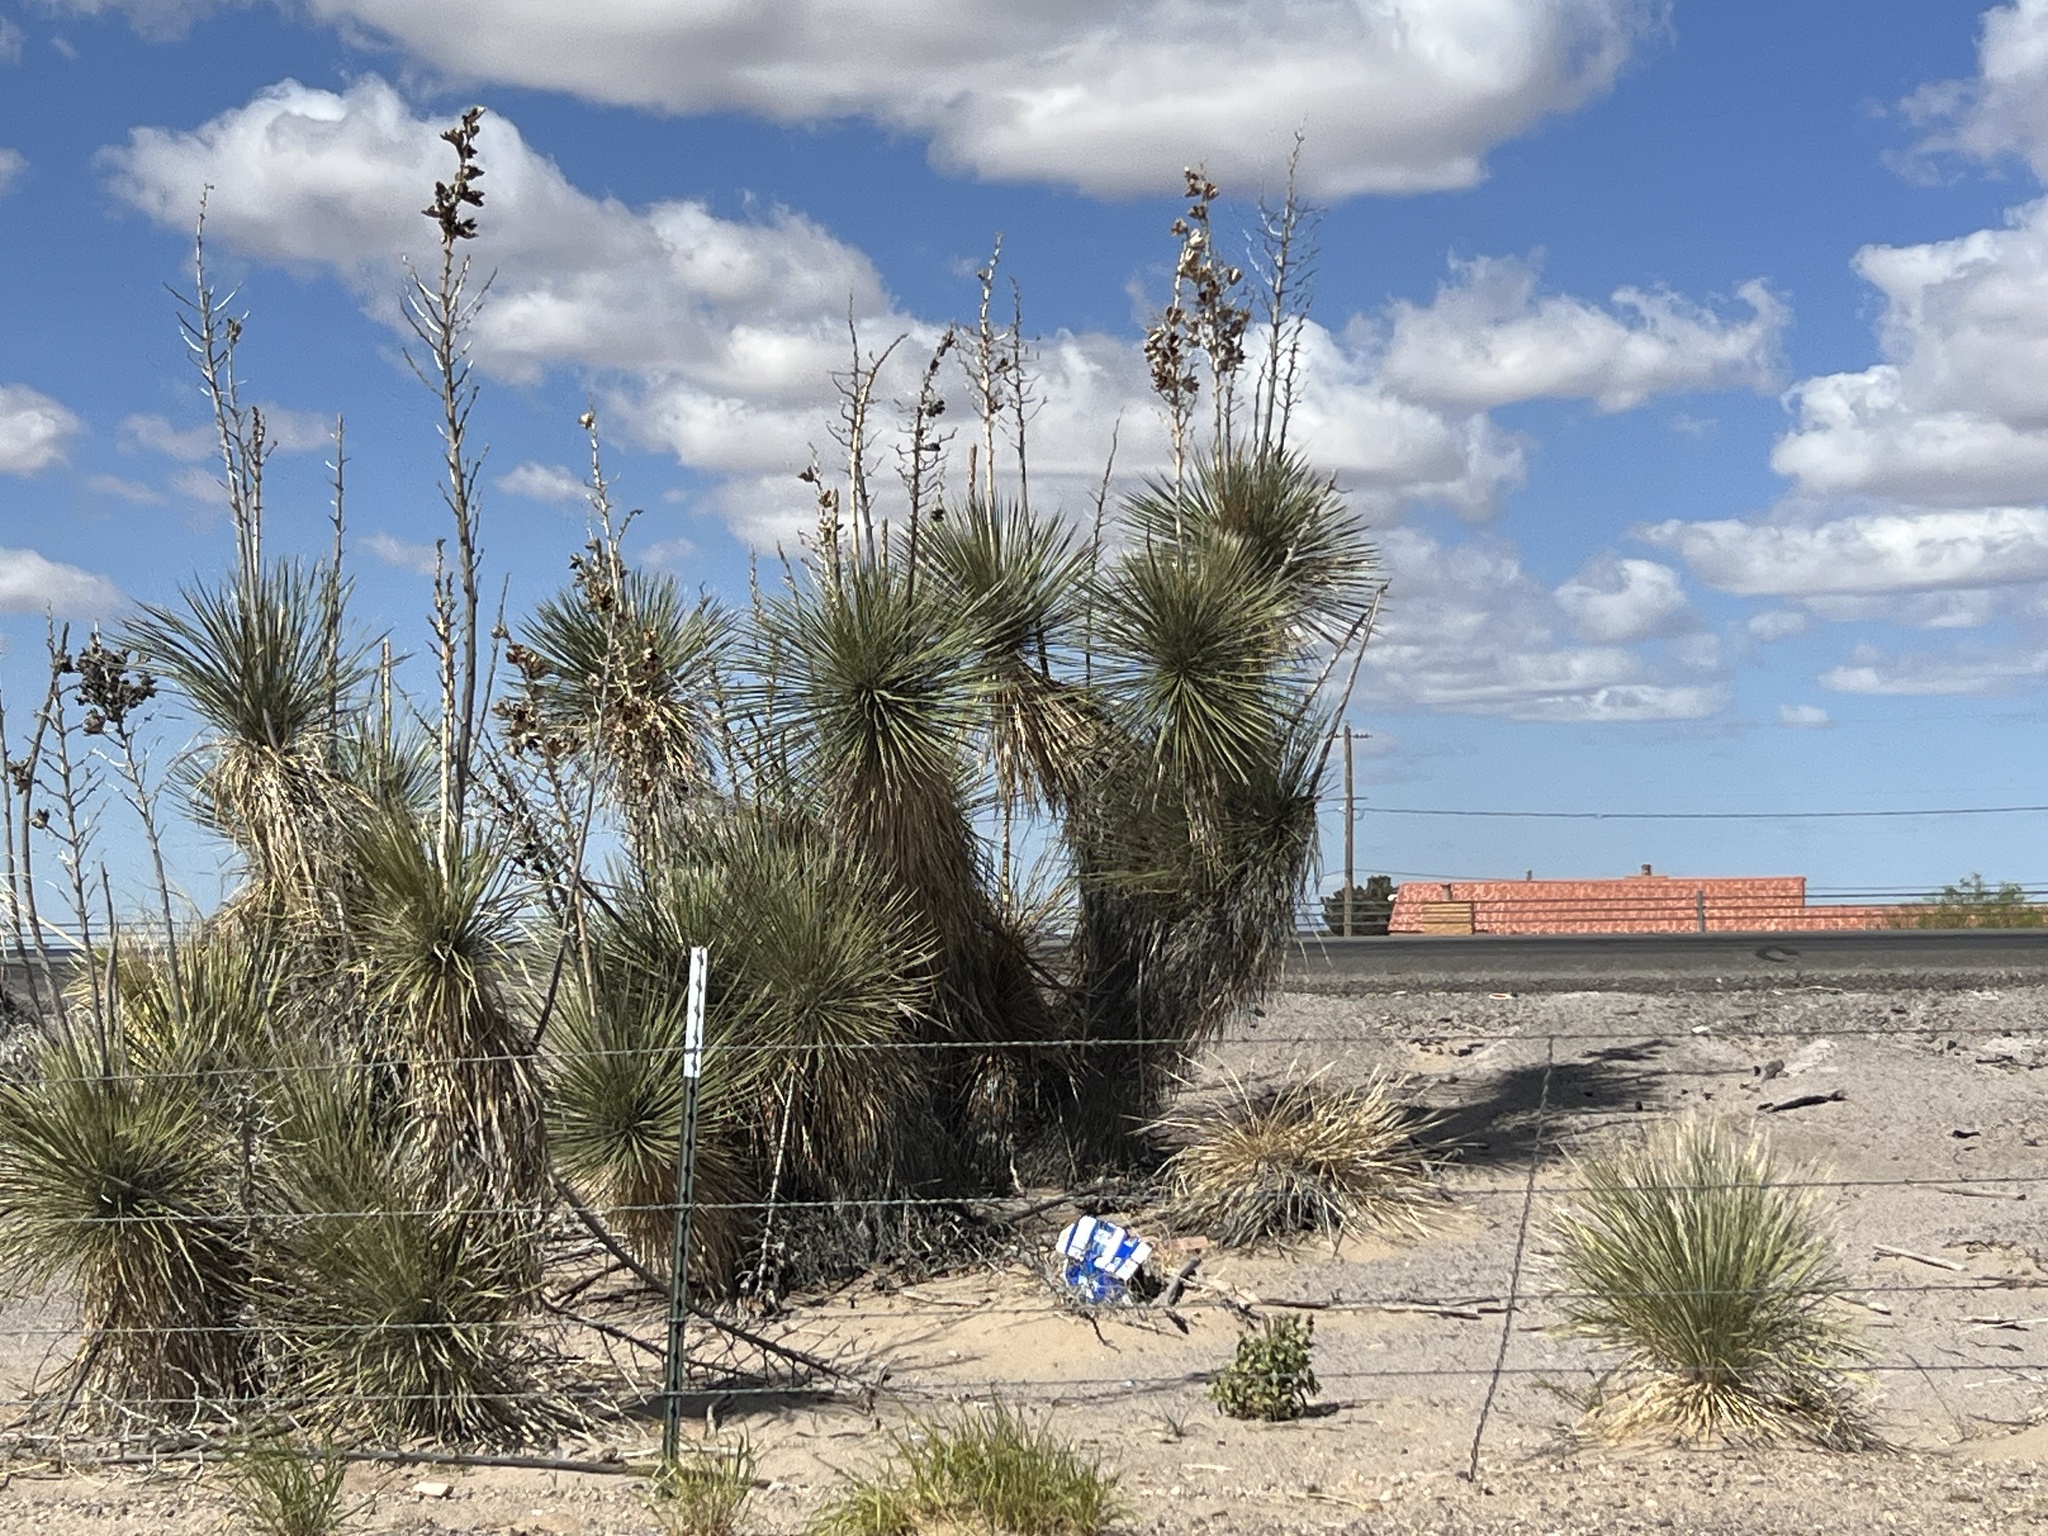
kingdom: Plantae
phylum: Tracheophyta
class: Liliopsida
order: Asparagales
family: Asparagaceae
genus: Yucca
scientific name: Yucca elata
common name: Palmella
